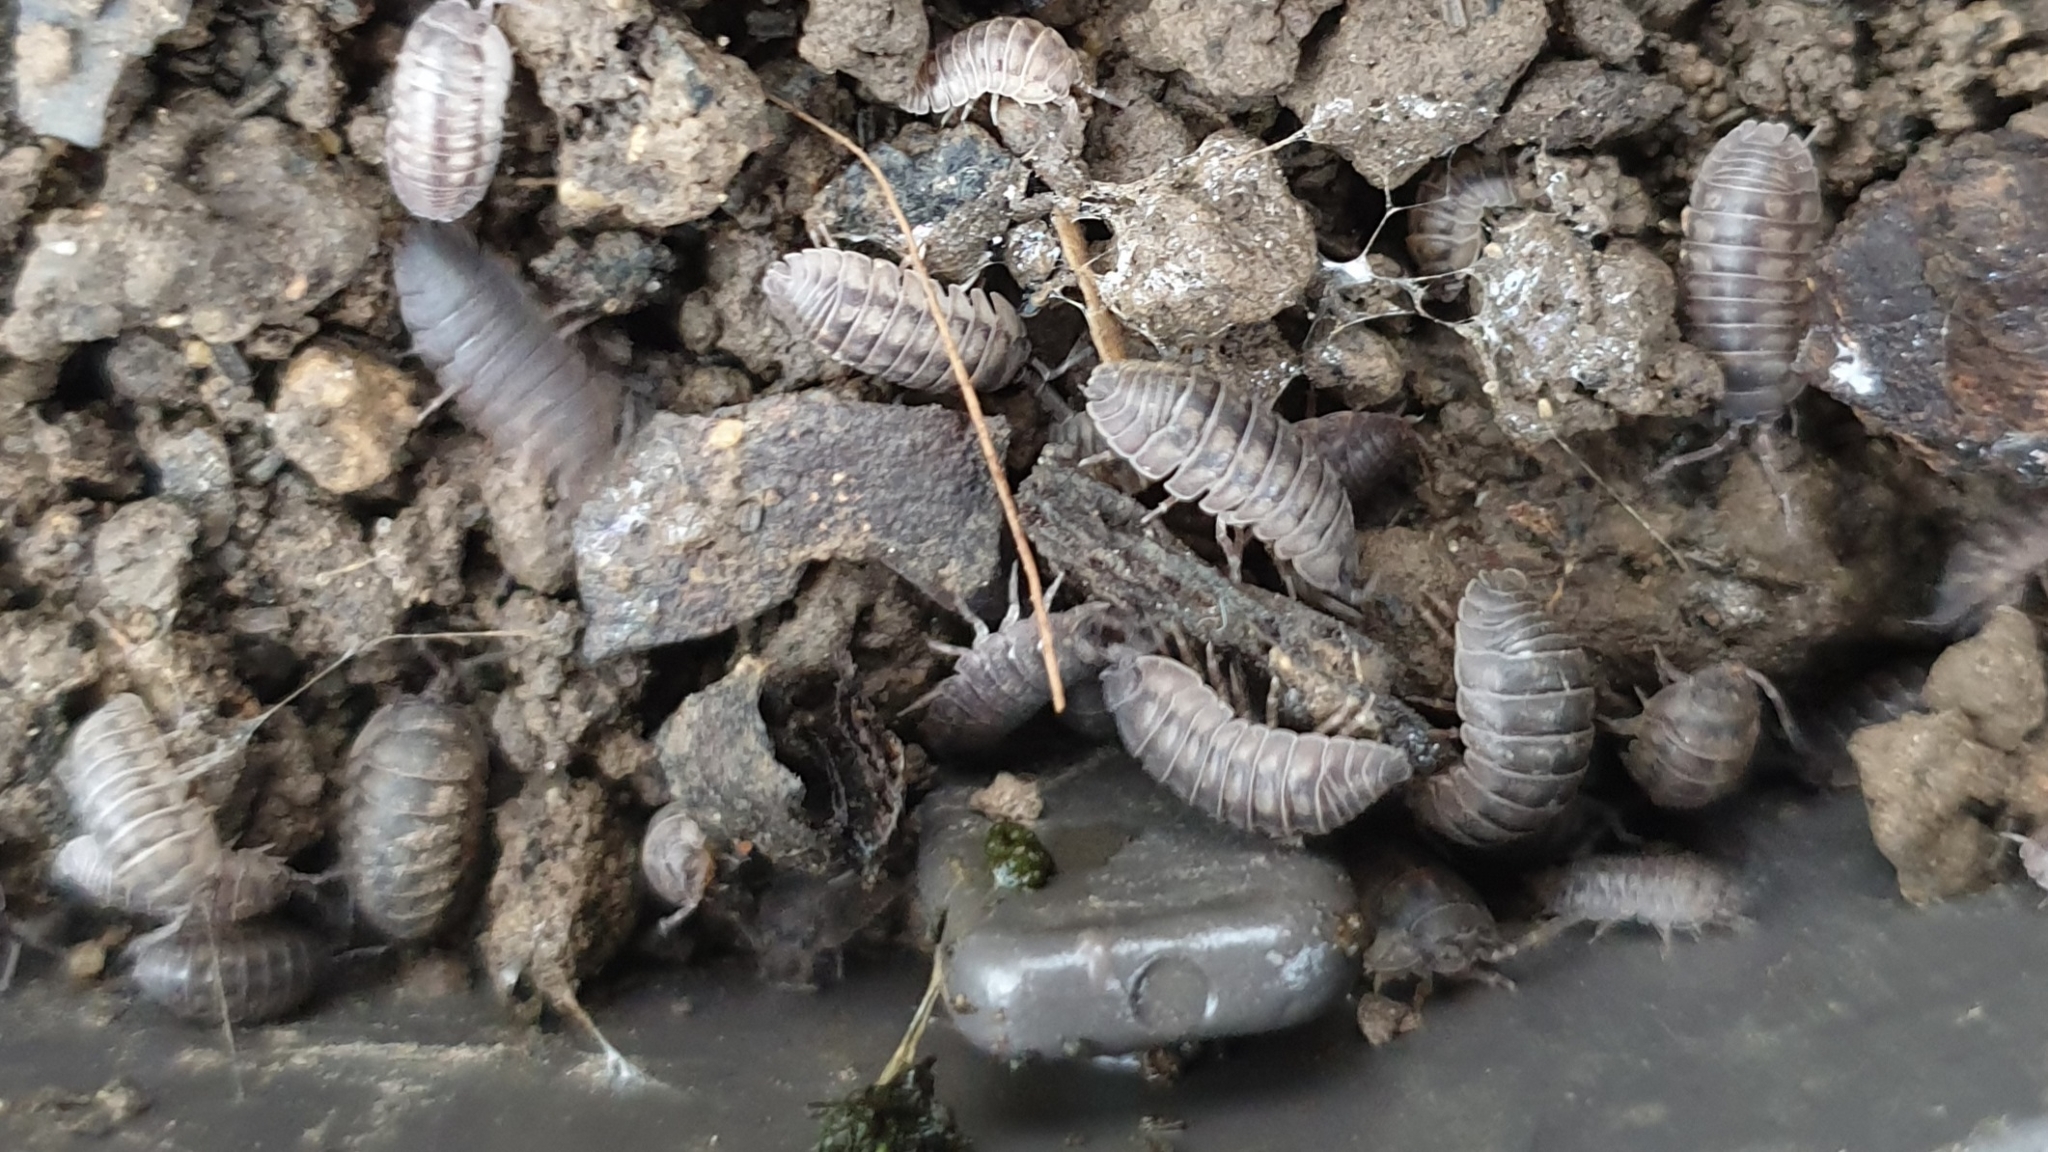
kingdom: Animalia
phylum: Arthropoda
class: Malacostraca
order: Isopoda
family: Armadillidiidae
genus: Armadillidium
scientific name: Armadillidium nasatum
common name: Isopod
